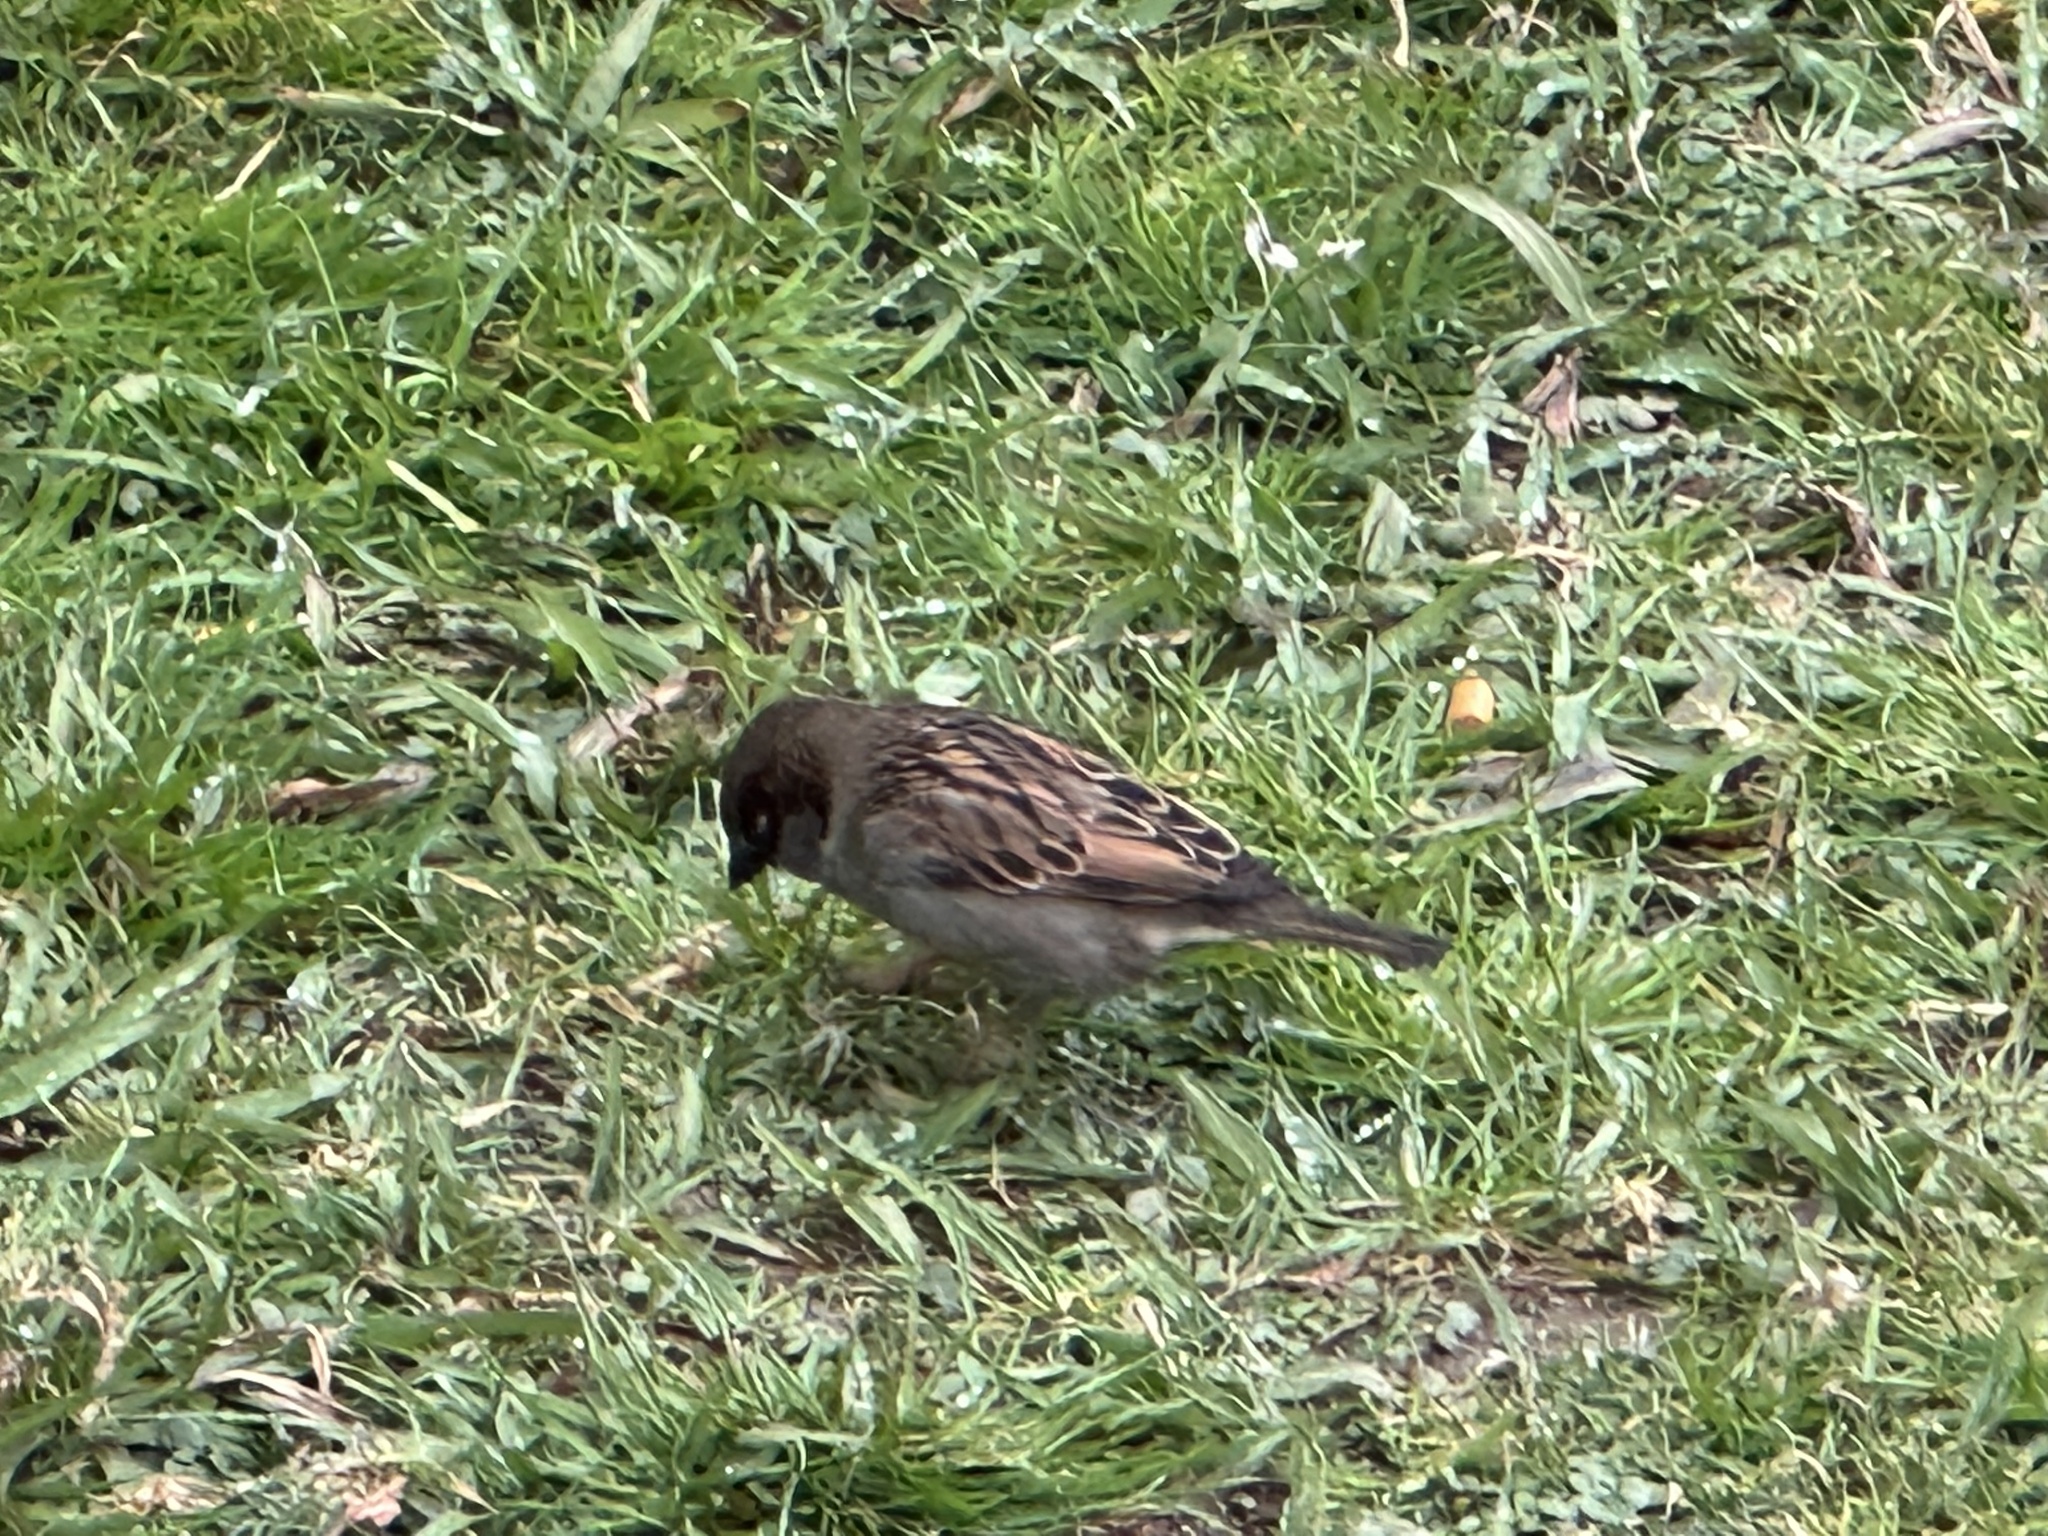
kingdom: Animalia
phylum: Chordata
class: Aves
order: Passeriformes
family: Passeridae
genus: Passer
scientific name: Passer domesticus
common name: House sparrow
